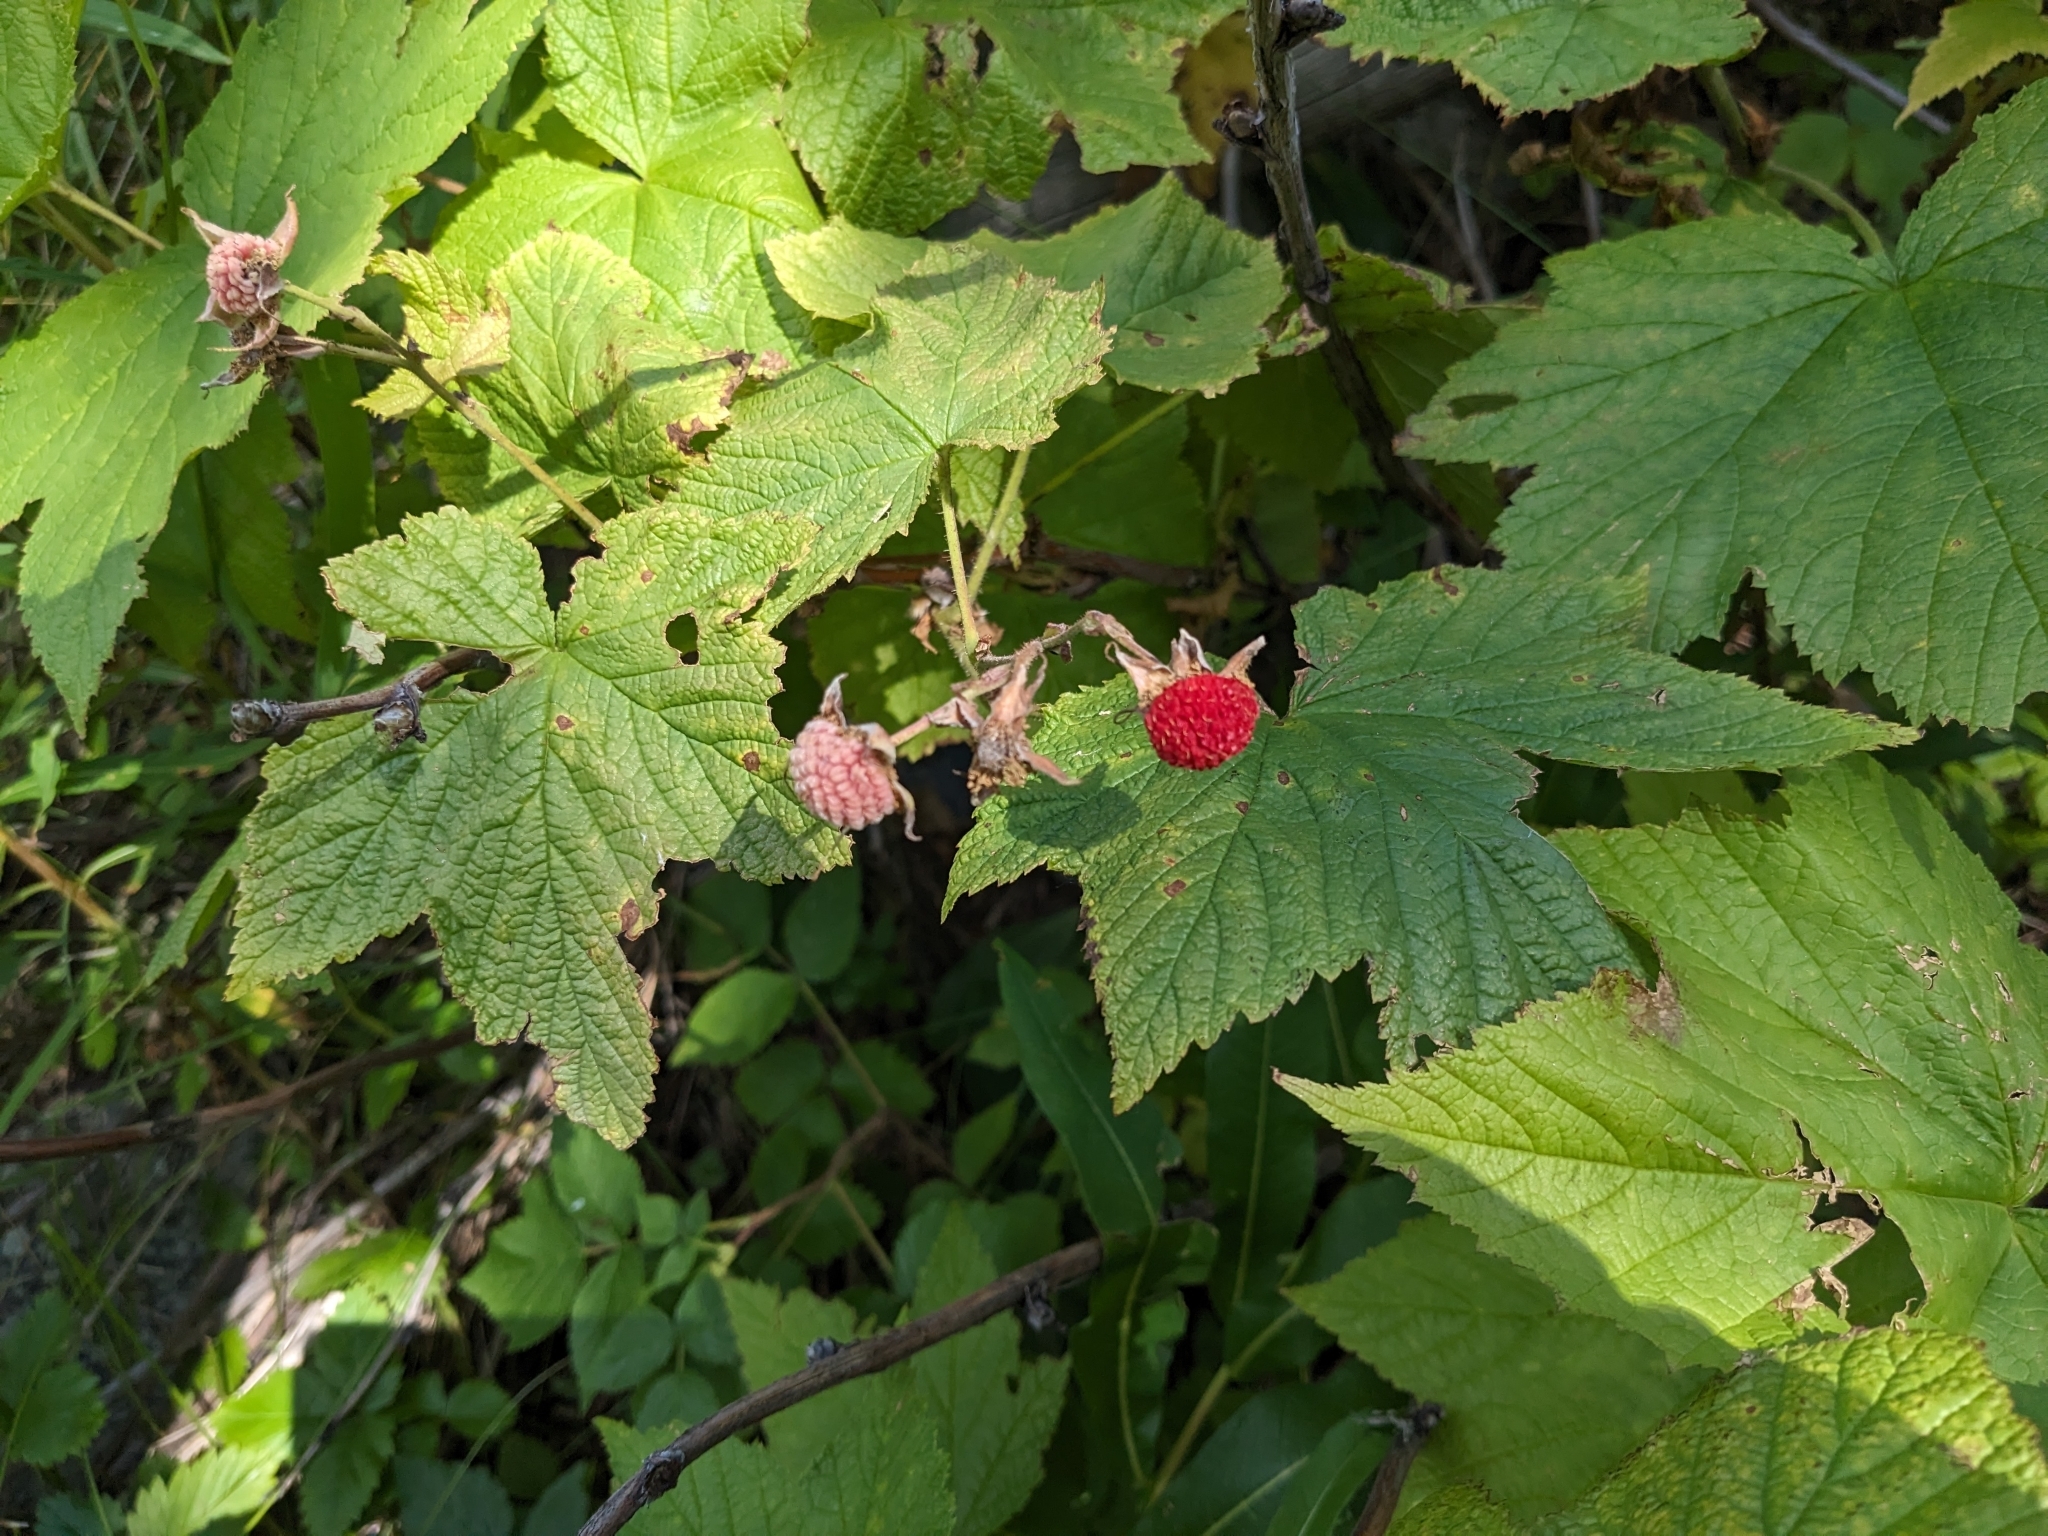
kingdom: Plantae
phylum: Tracheophyta
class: Magnoliopsida
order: Rosales
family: Rosaceae
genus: Rubus
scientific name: Rubus parviflorus
